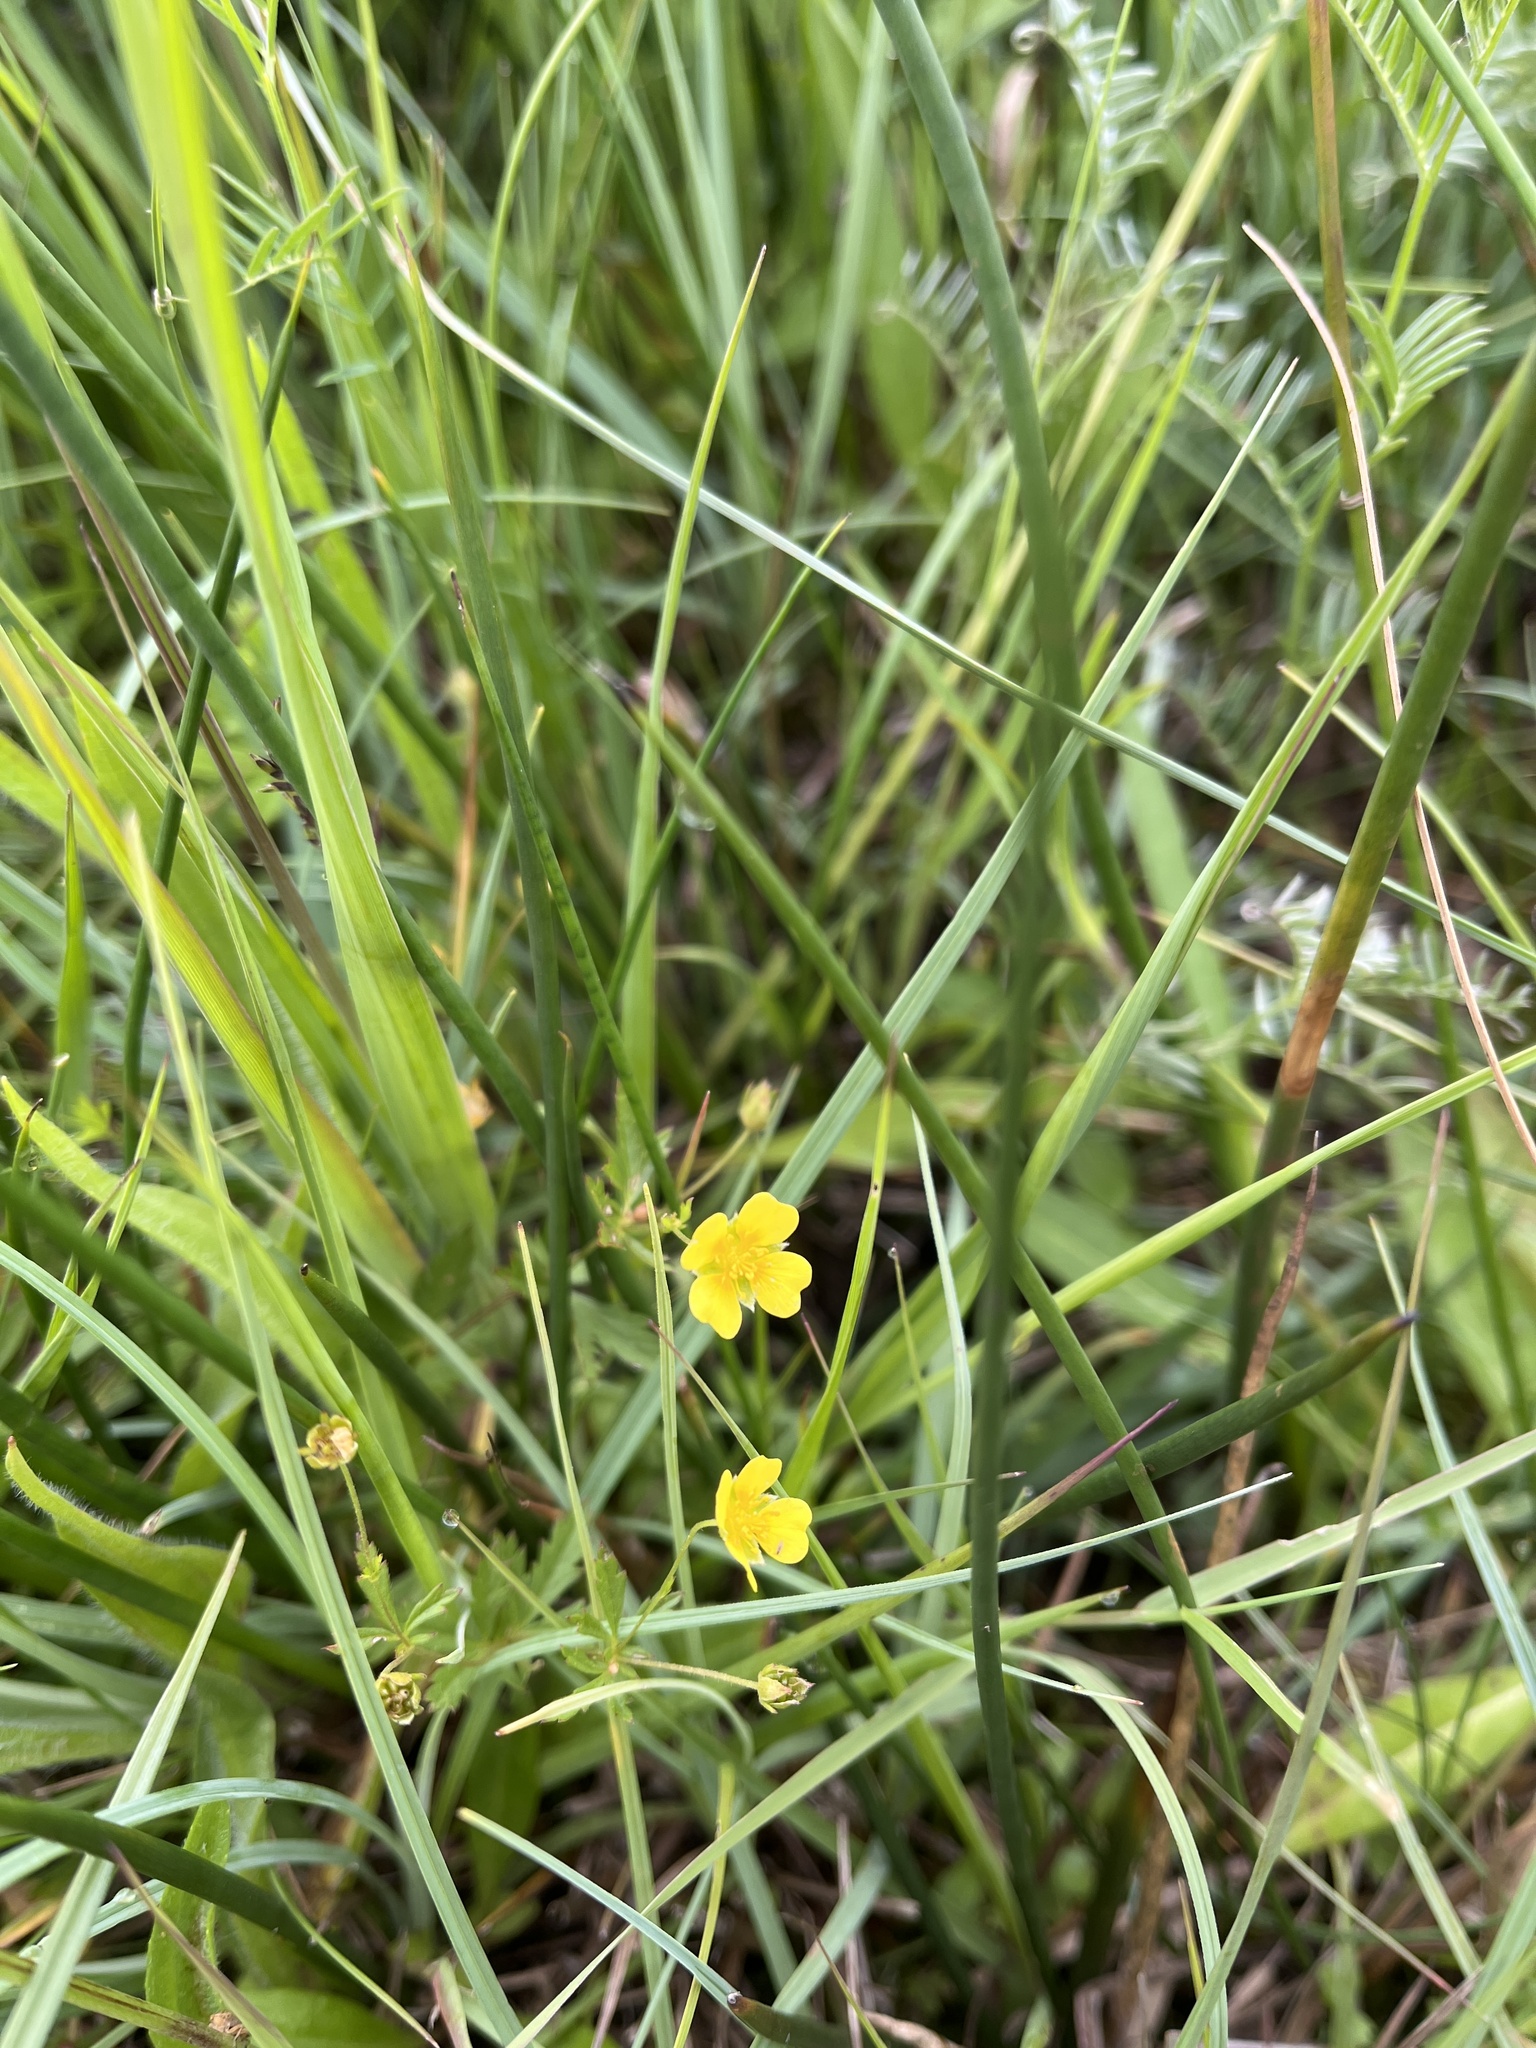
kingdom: Plantae
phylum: Tracheophyta
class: Magnoliopsida
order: Rosales
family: Rosaceae
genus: Potentilla
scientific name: Potentilla erecta
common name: Tormentil
